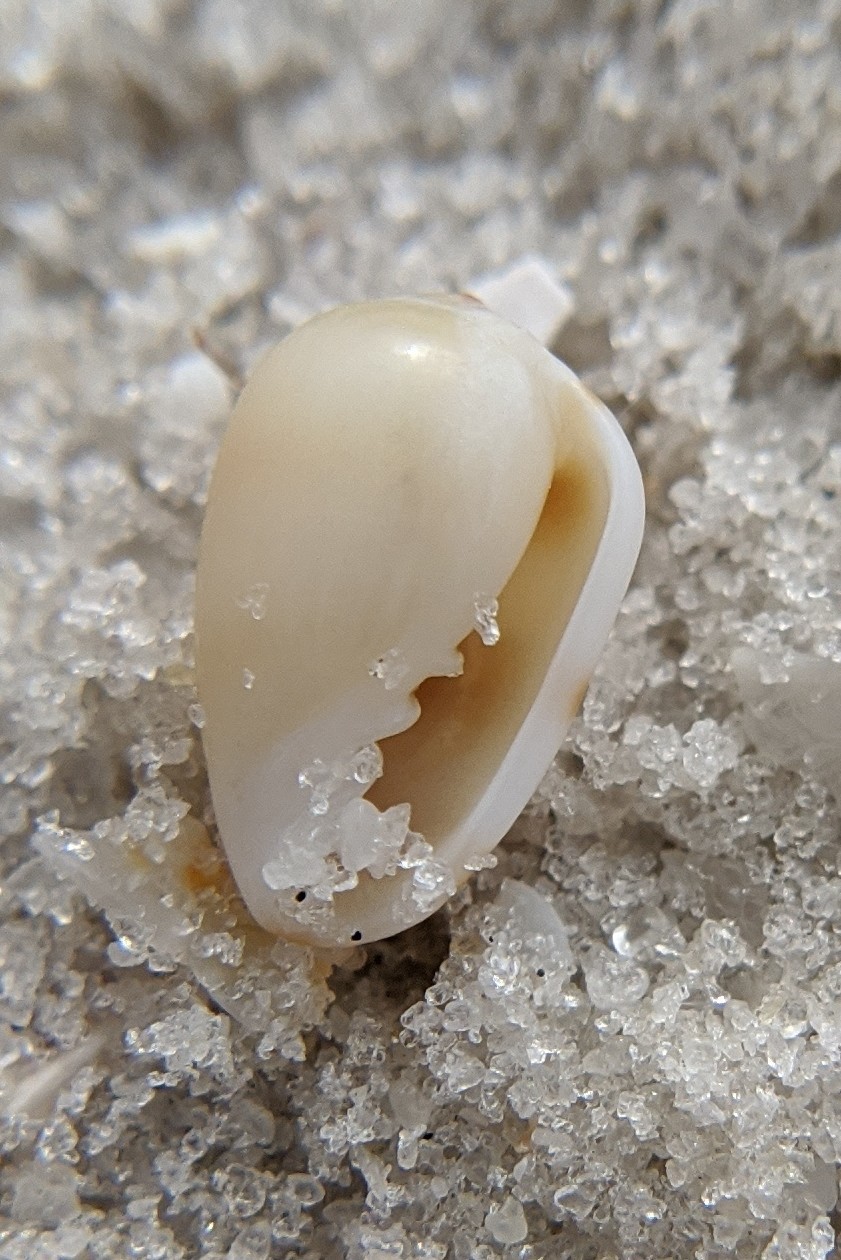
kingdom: Animalia
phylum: Mollusca
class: Gastropoda
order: Neogastropoda
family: Marginellidae
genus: Prunum
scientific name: Prunum apicinum
